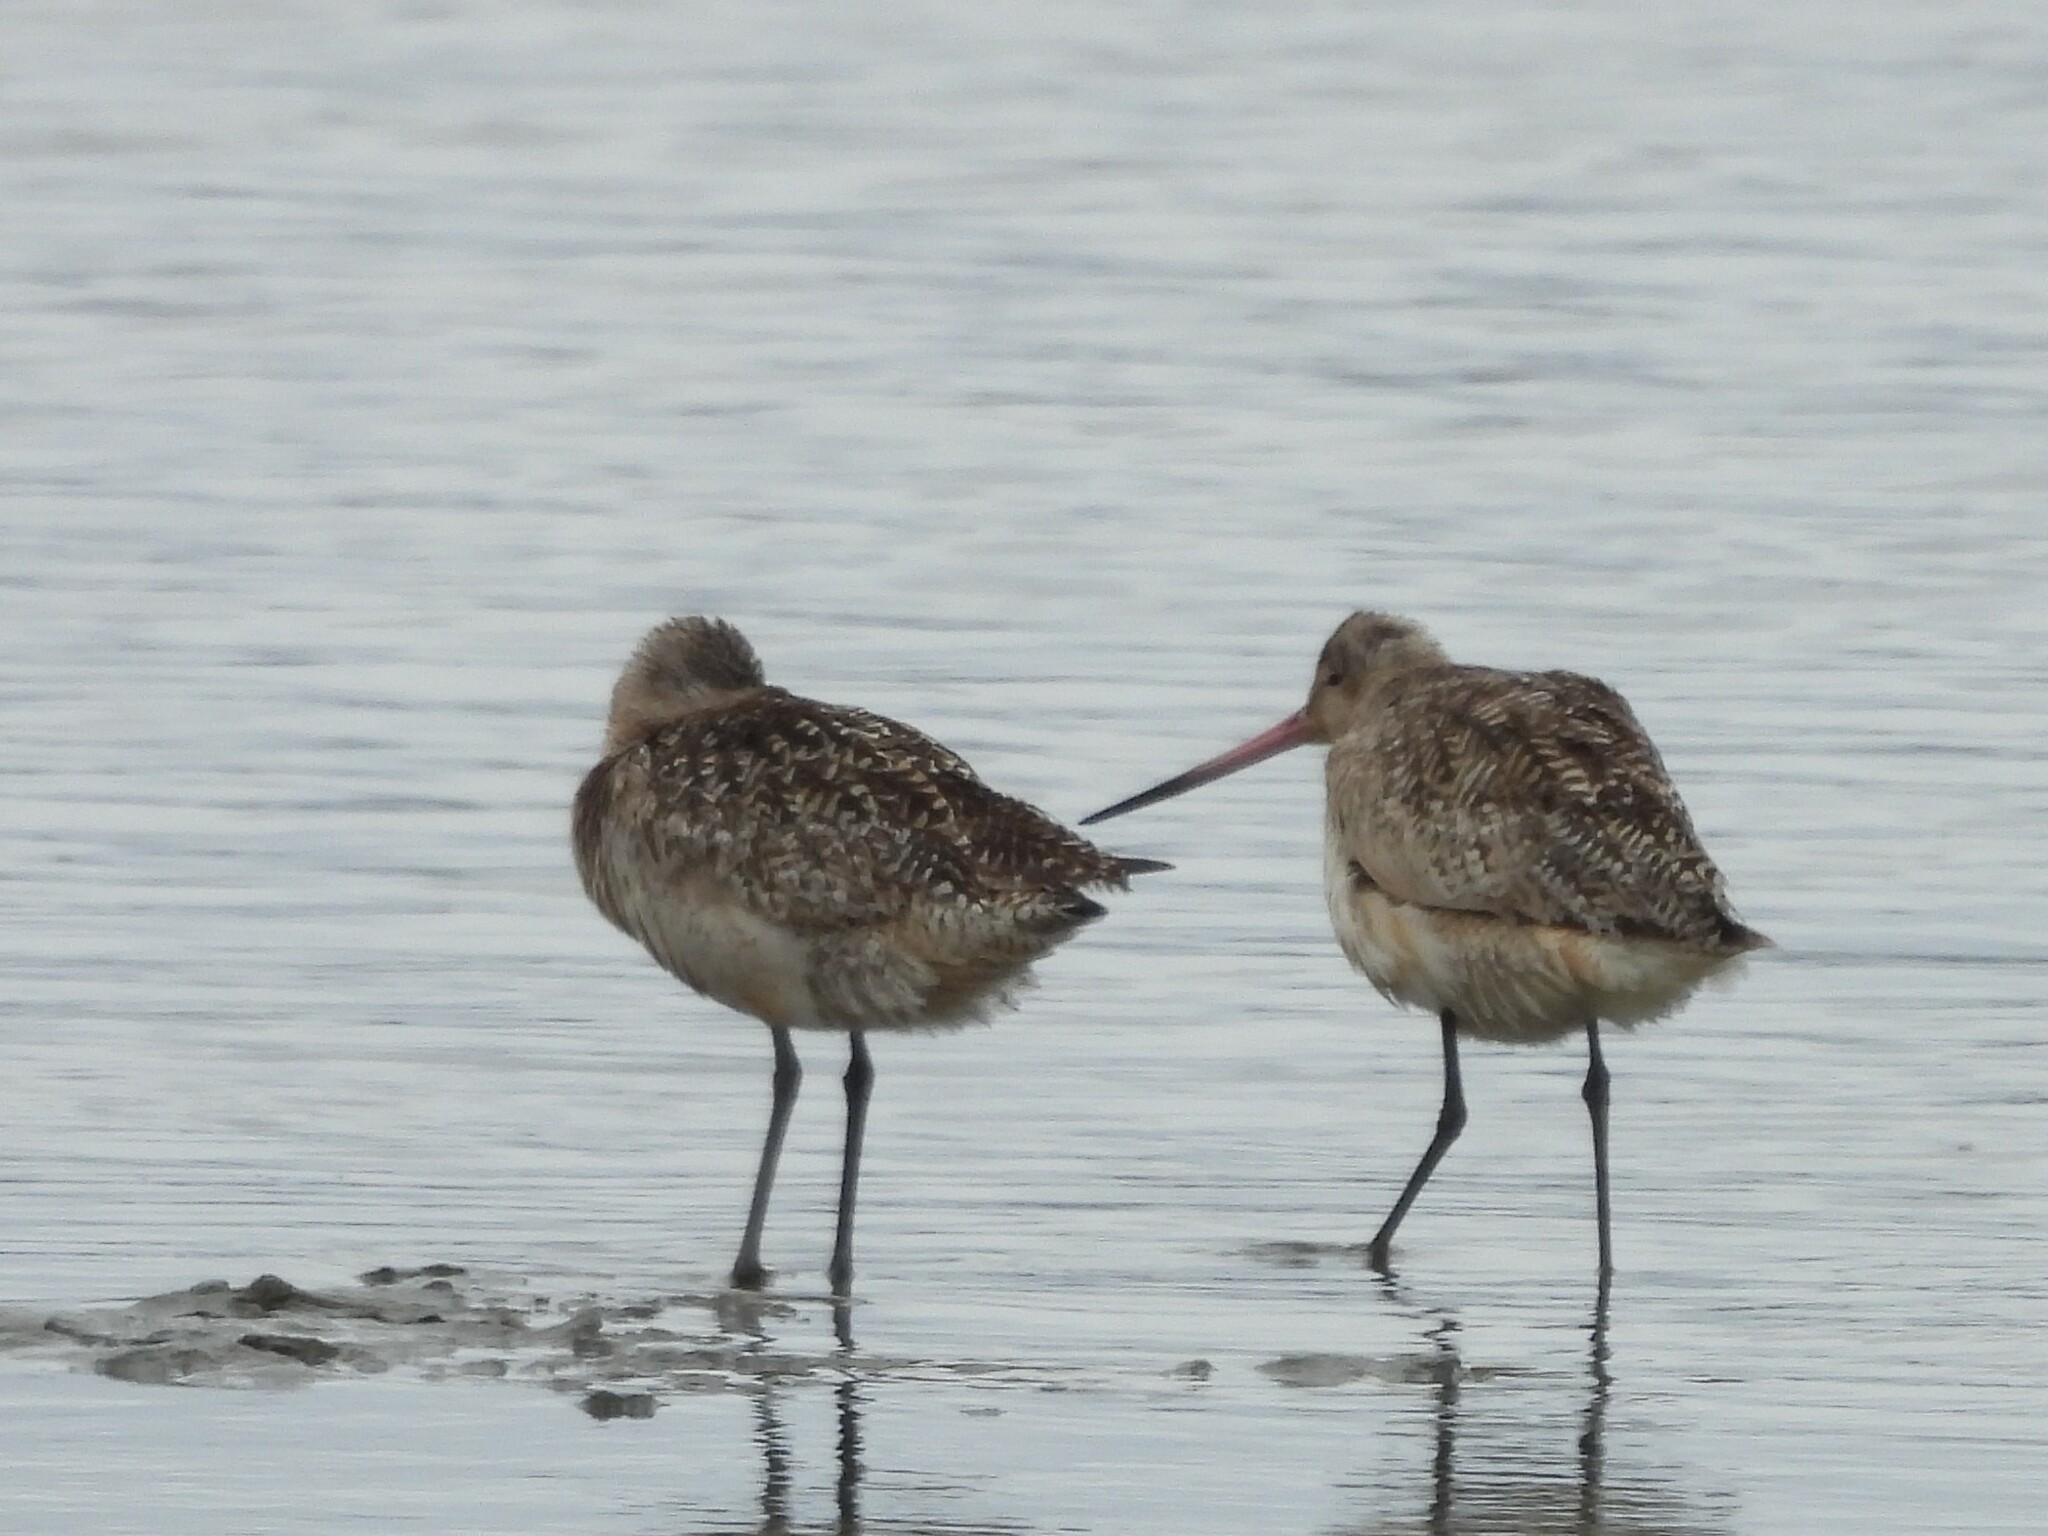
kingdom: Animalia
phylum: Chordata
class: Aves
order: Charadriiformes
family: Scolopacidae
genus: Limosa
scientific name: Limosa fedoa
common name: Marbled godwit
